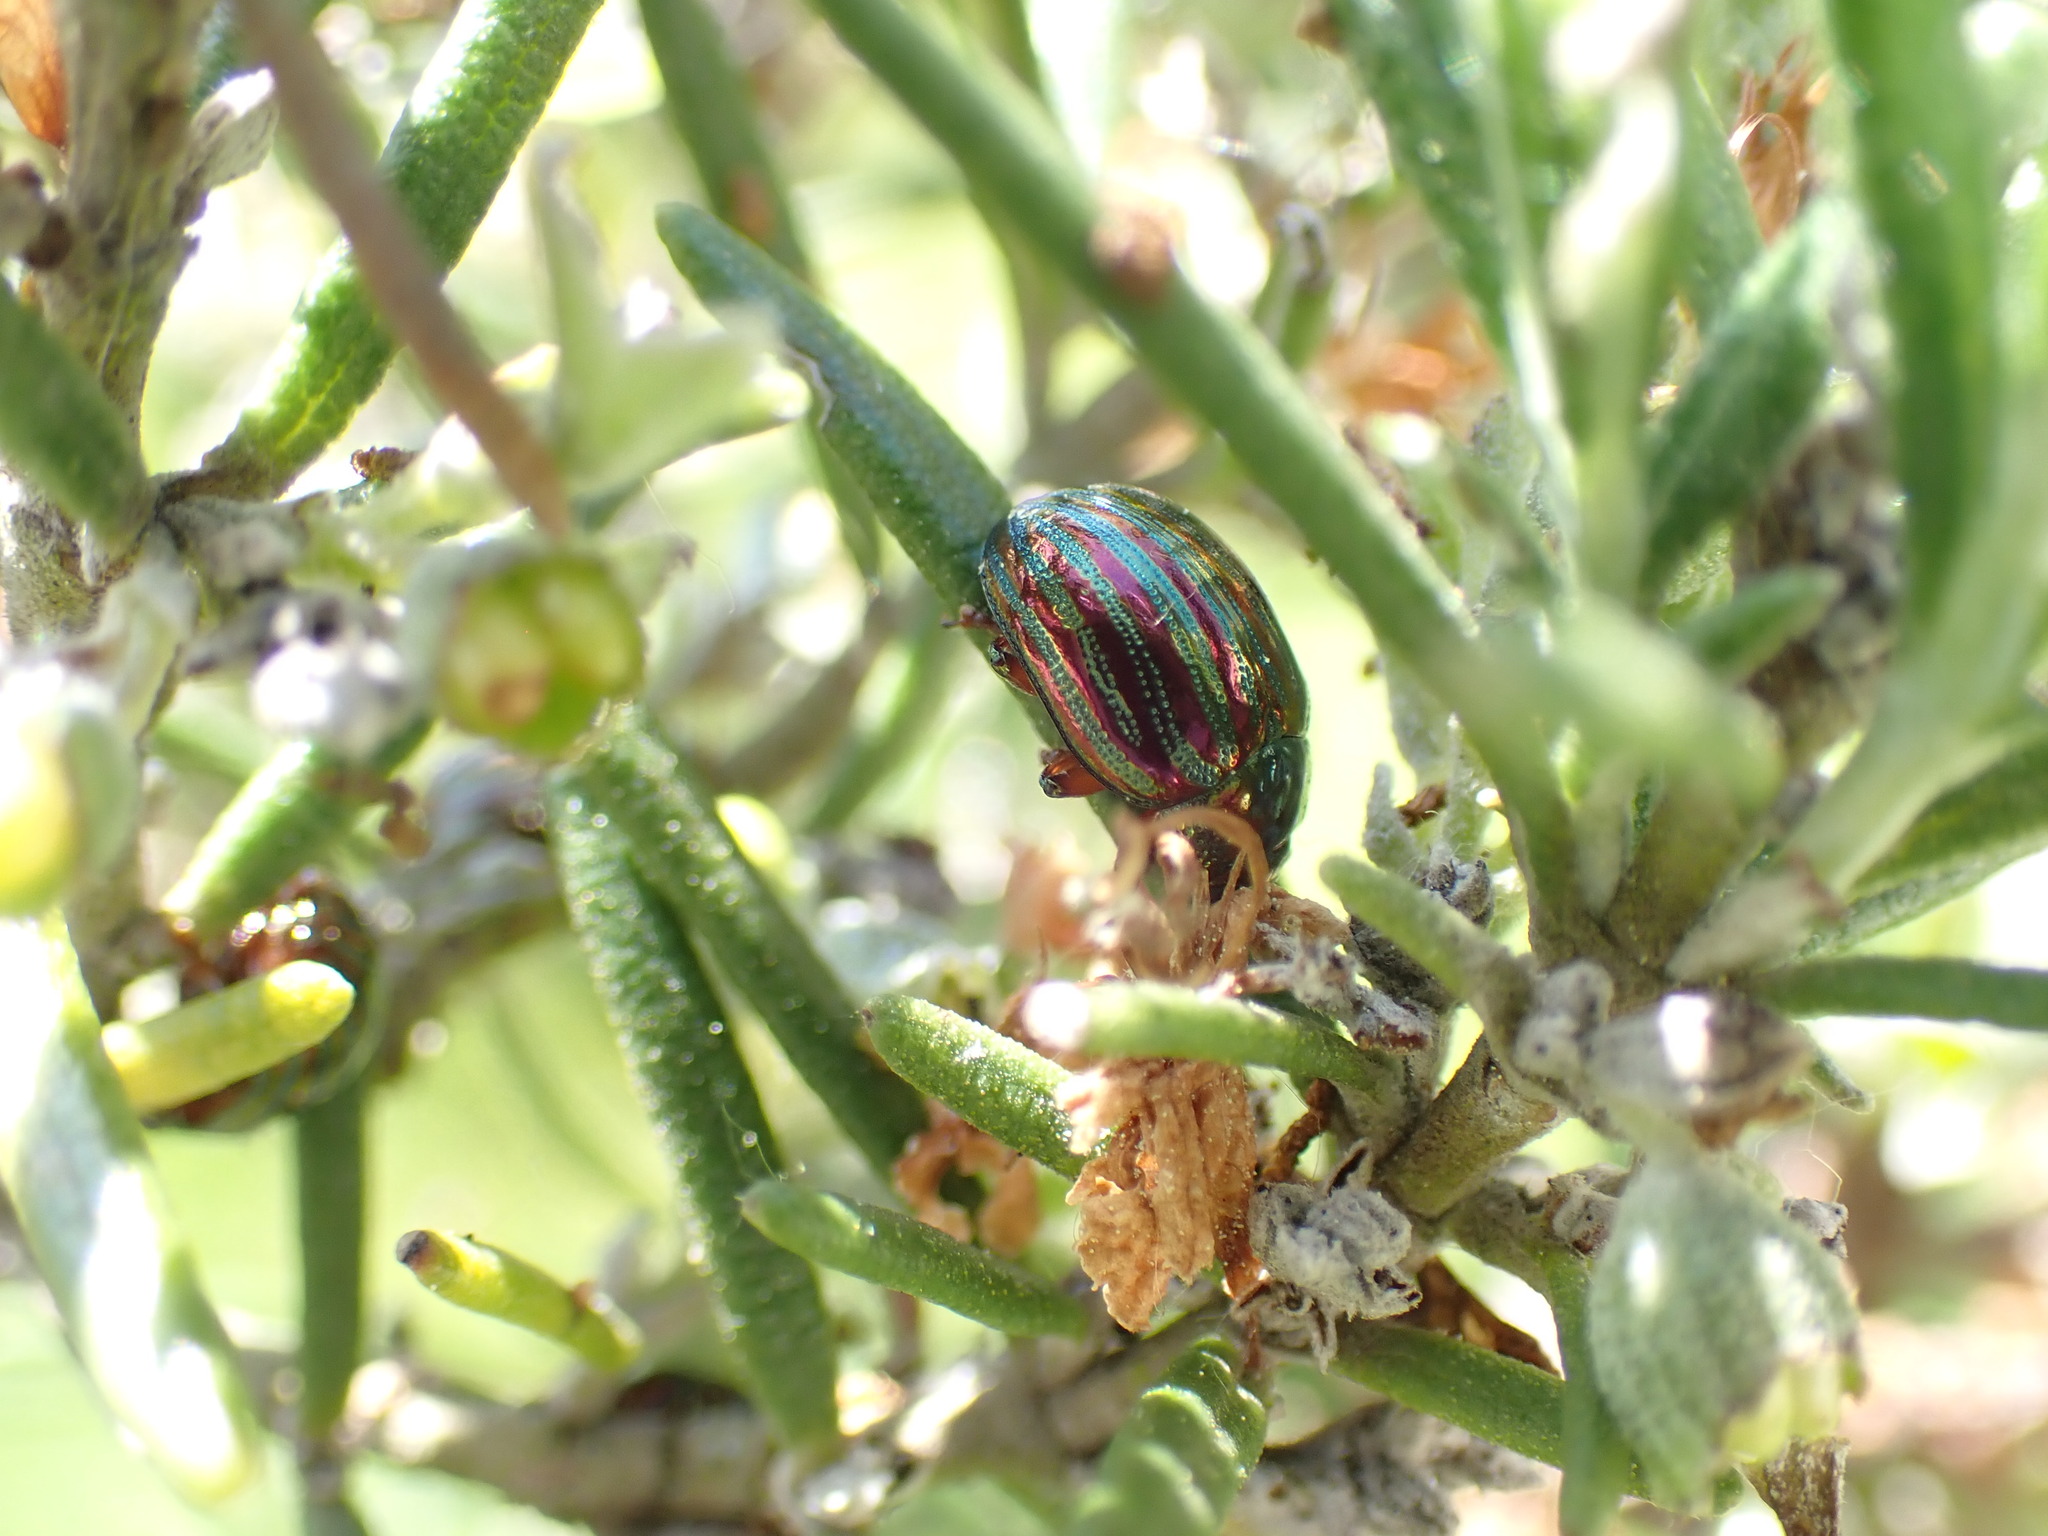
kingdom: Animalia
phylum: Arthropoda
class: Insecta
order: Coleoptera
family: Chrysomelidae
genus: Chrysolina
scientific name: Chrysolina americana
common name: Rosemary beetle
